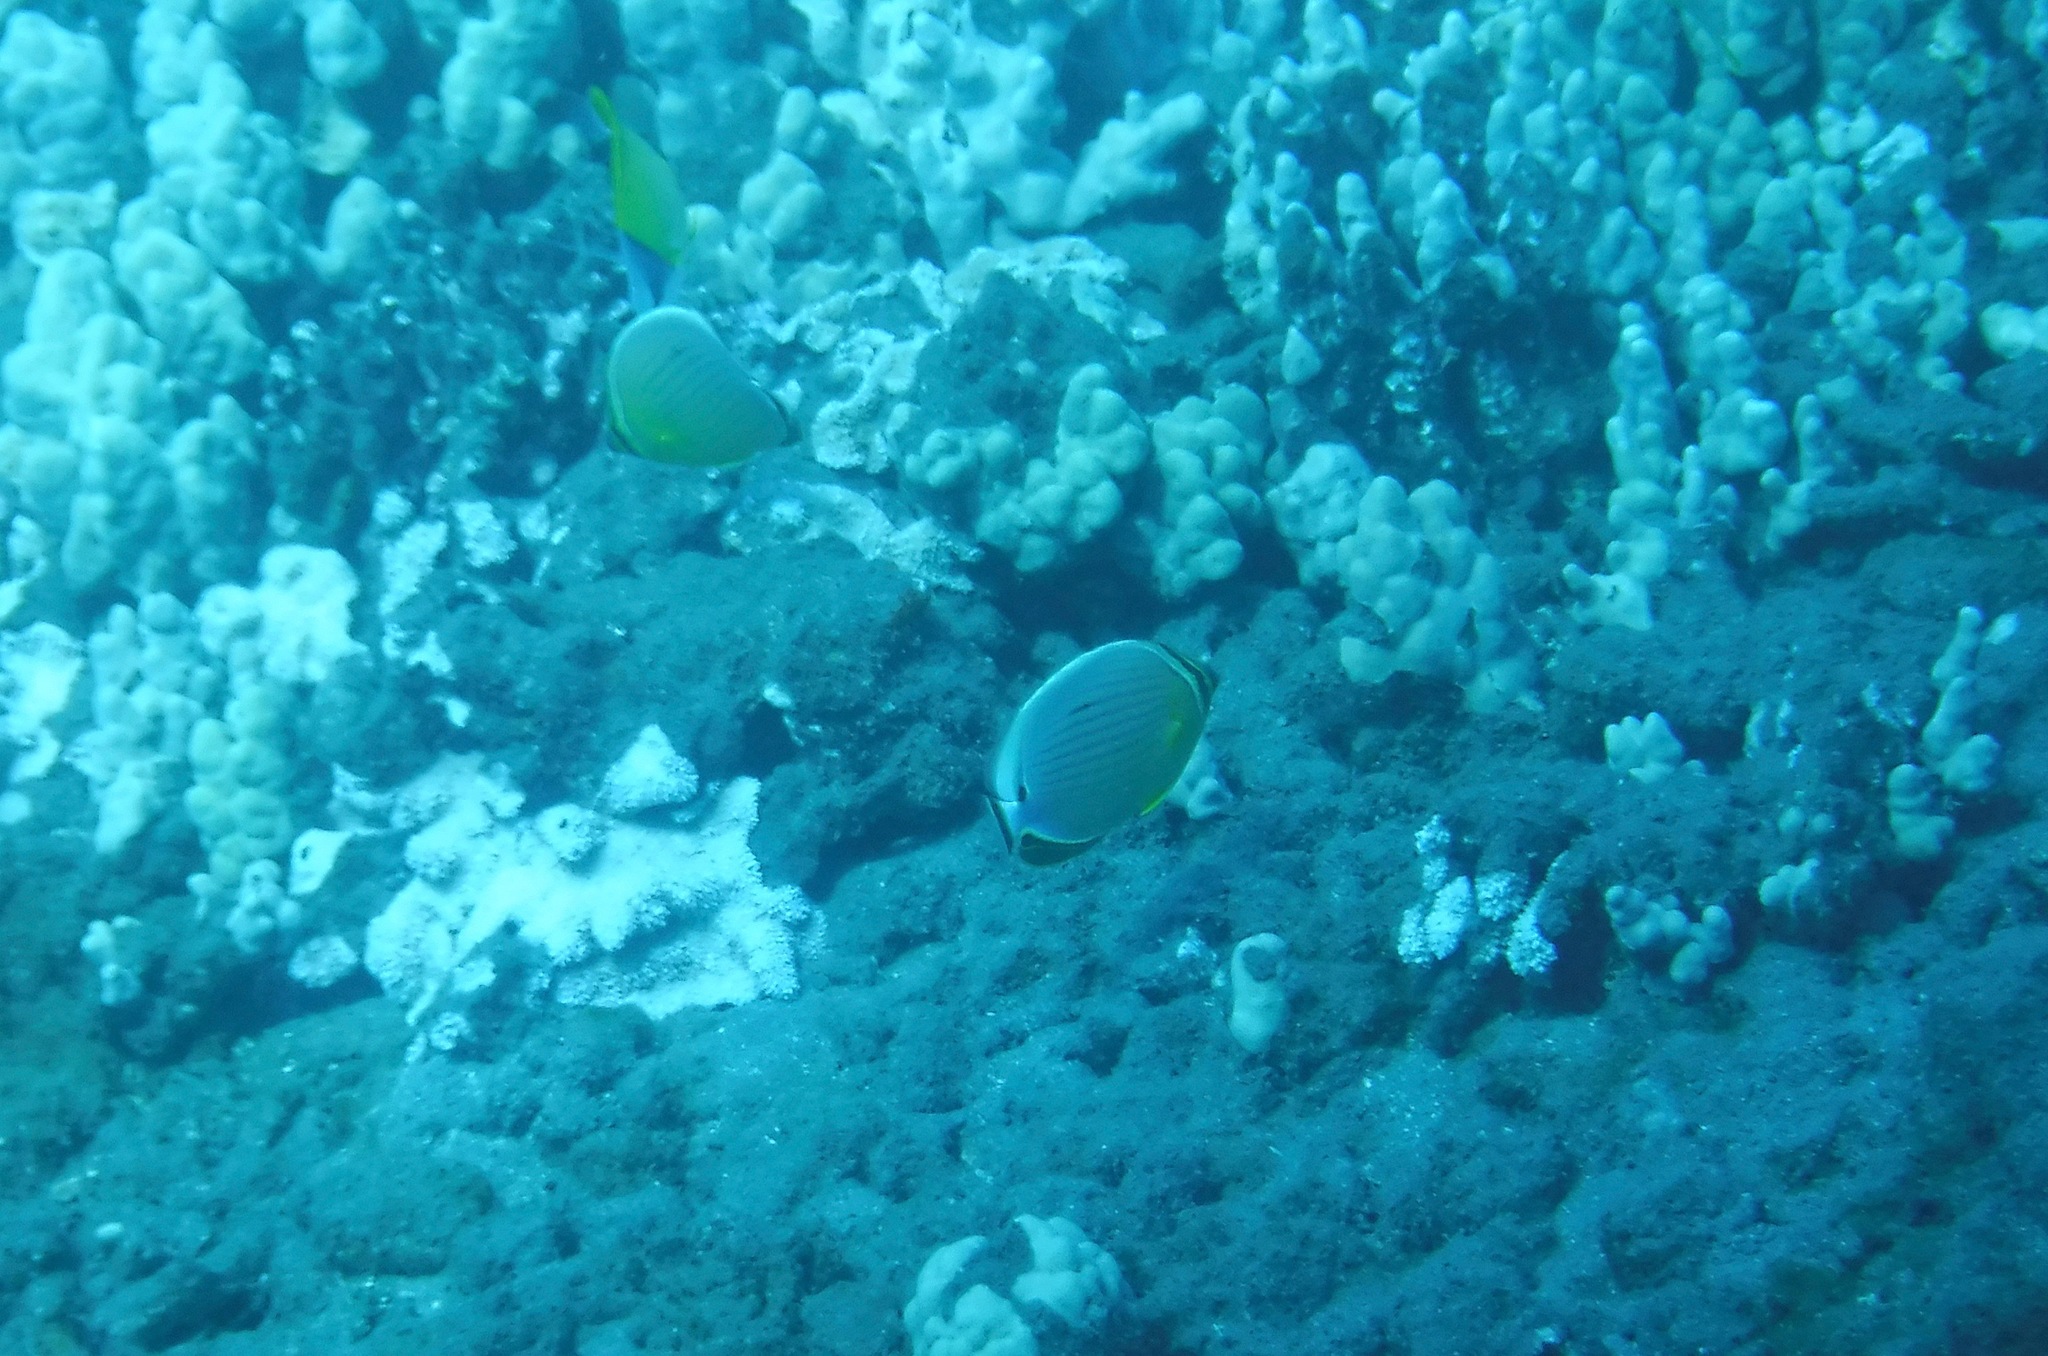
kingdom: Animalia
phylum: Chordata
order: Perciformes
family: Chaetodontidae
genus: Chaetodon
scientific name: Chaetodon lunulatus
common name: Redfin butterflyfish
